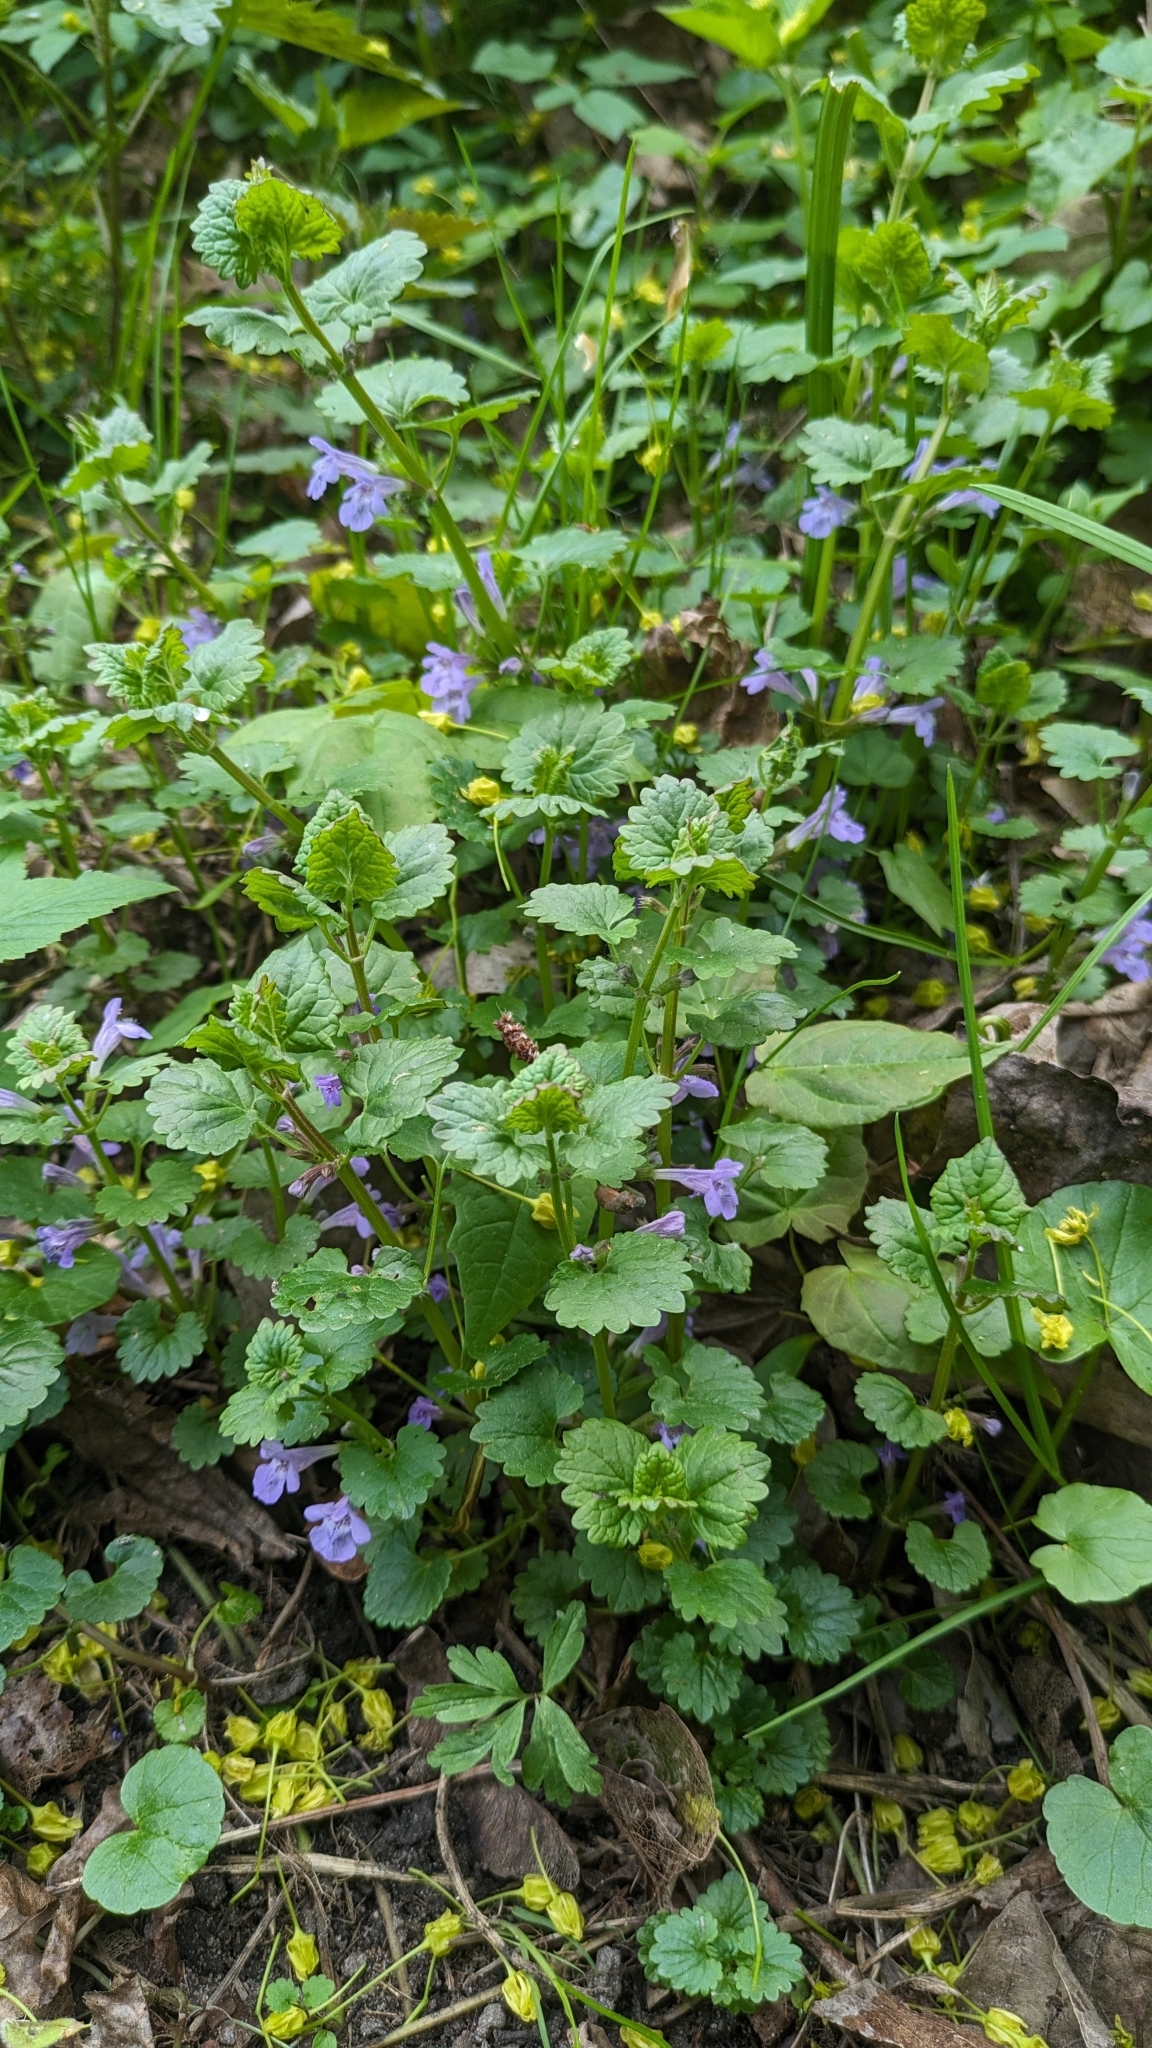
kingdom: Plantae
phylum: Tracheophyta
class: Magnoliopsida
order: Lamiales
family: Lamiaceae
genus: Glechoma
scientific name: Glechoma hederacea
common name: Ground ivy
